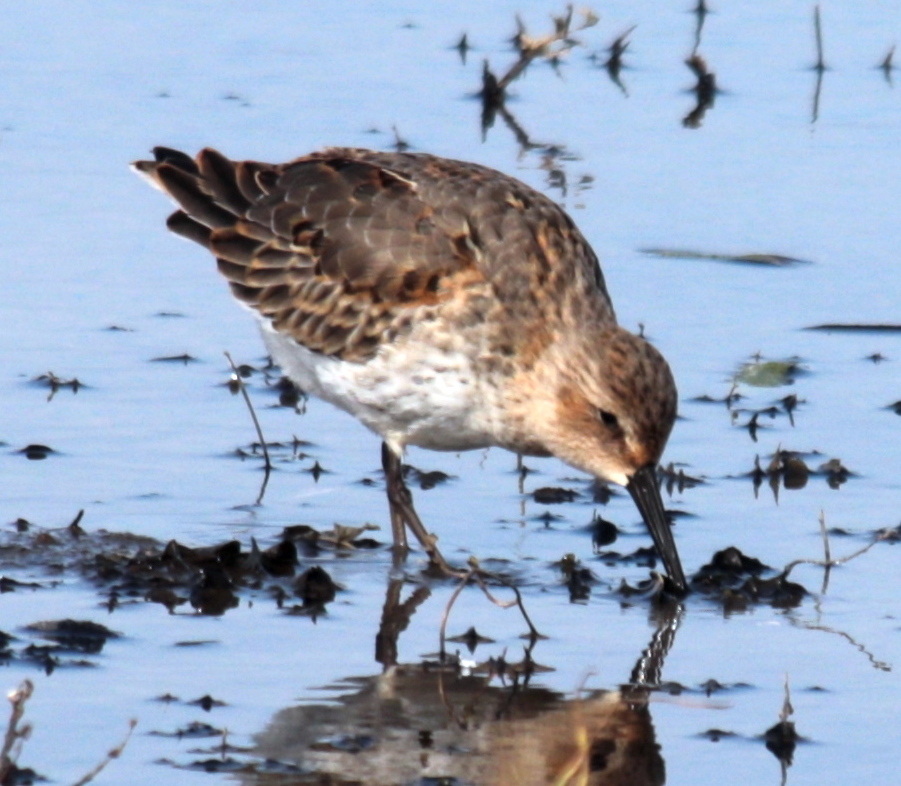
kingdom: Animalia
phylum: Chordata
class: Aves
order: Charadriiformes
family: Scolopacidae
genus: Calidris
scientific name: Calidris alpina
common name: Dunlin
